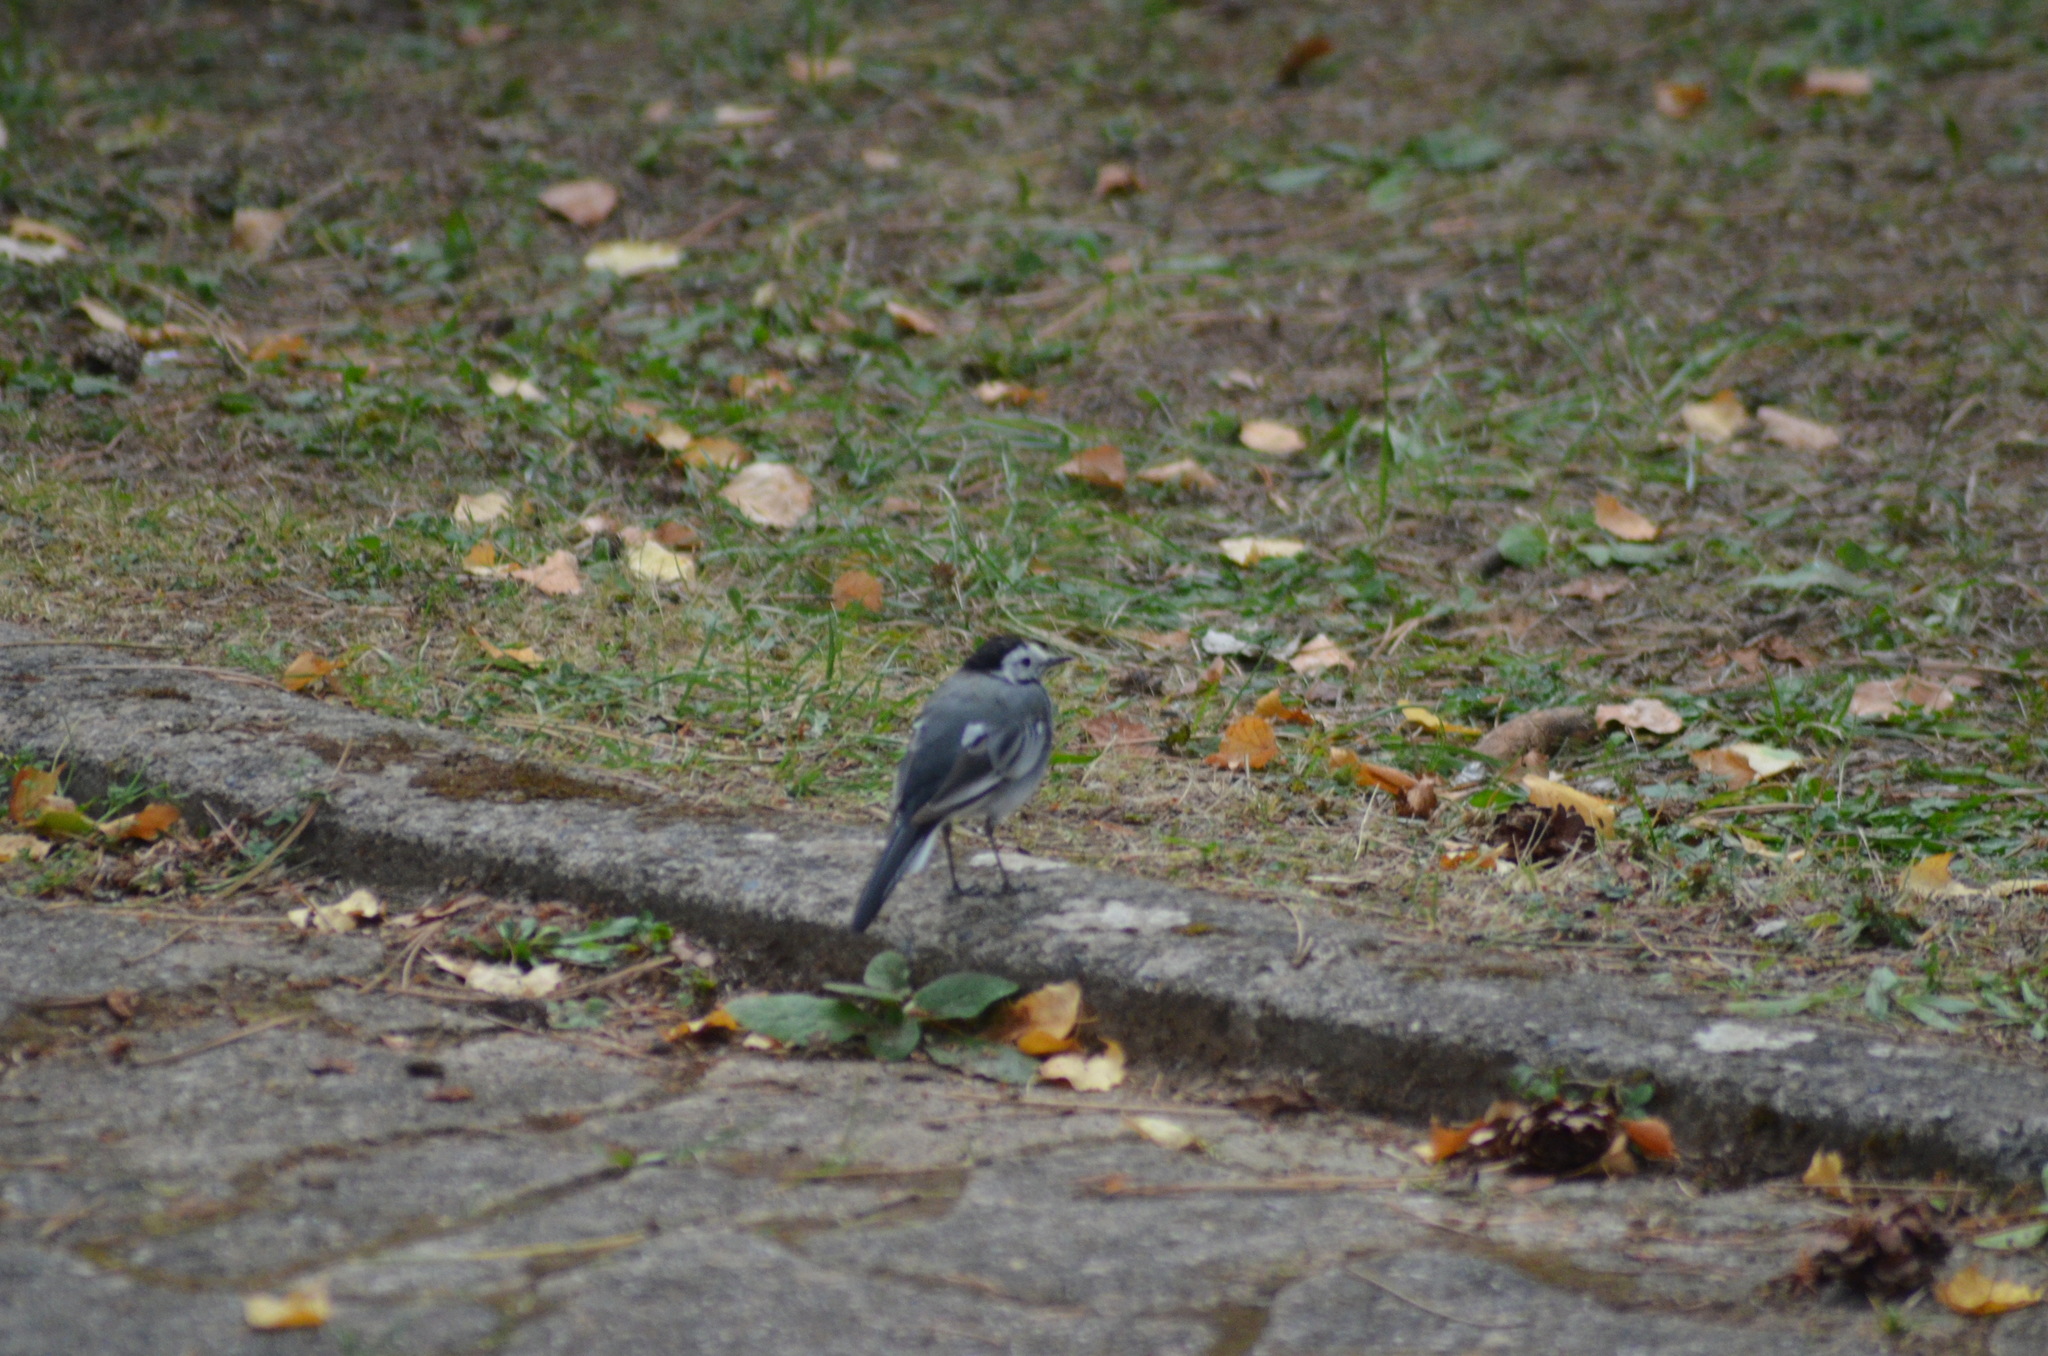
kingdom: Animalia
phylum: Chordata
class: Aves
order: Passeriformes
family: Motacillidae
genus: Motacilla
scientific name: Motacilla alba
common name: White wagtail
